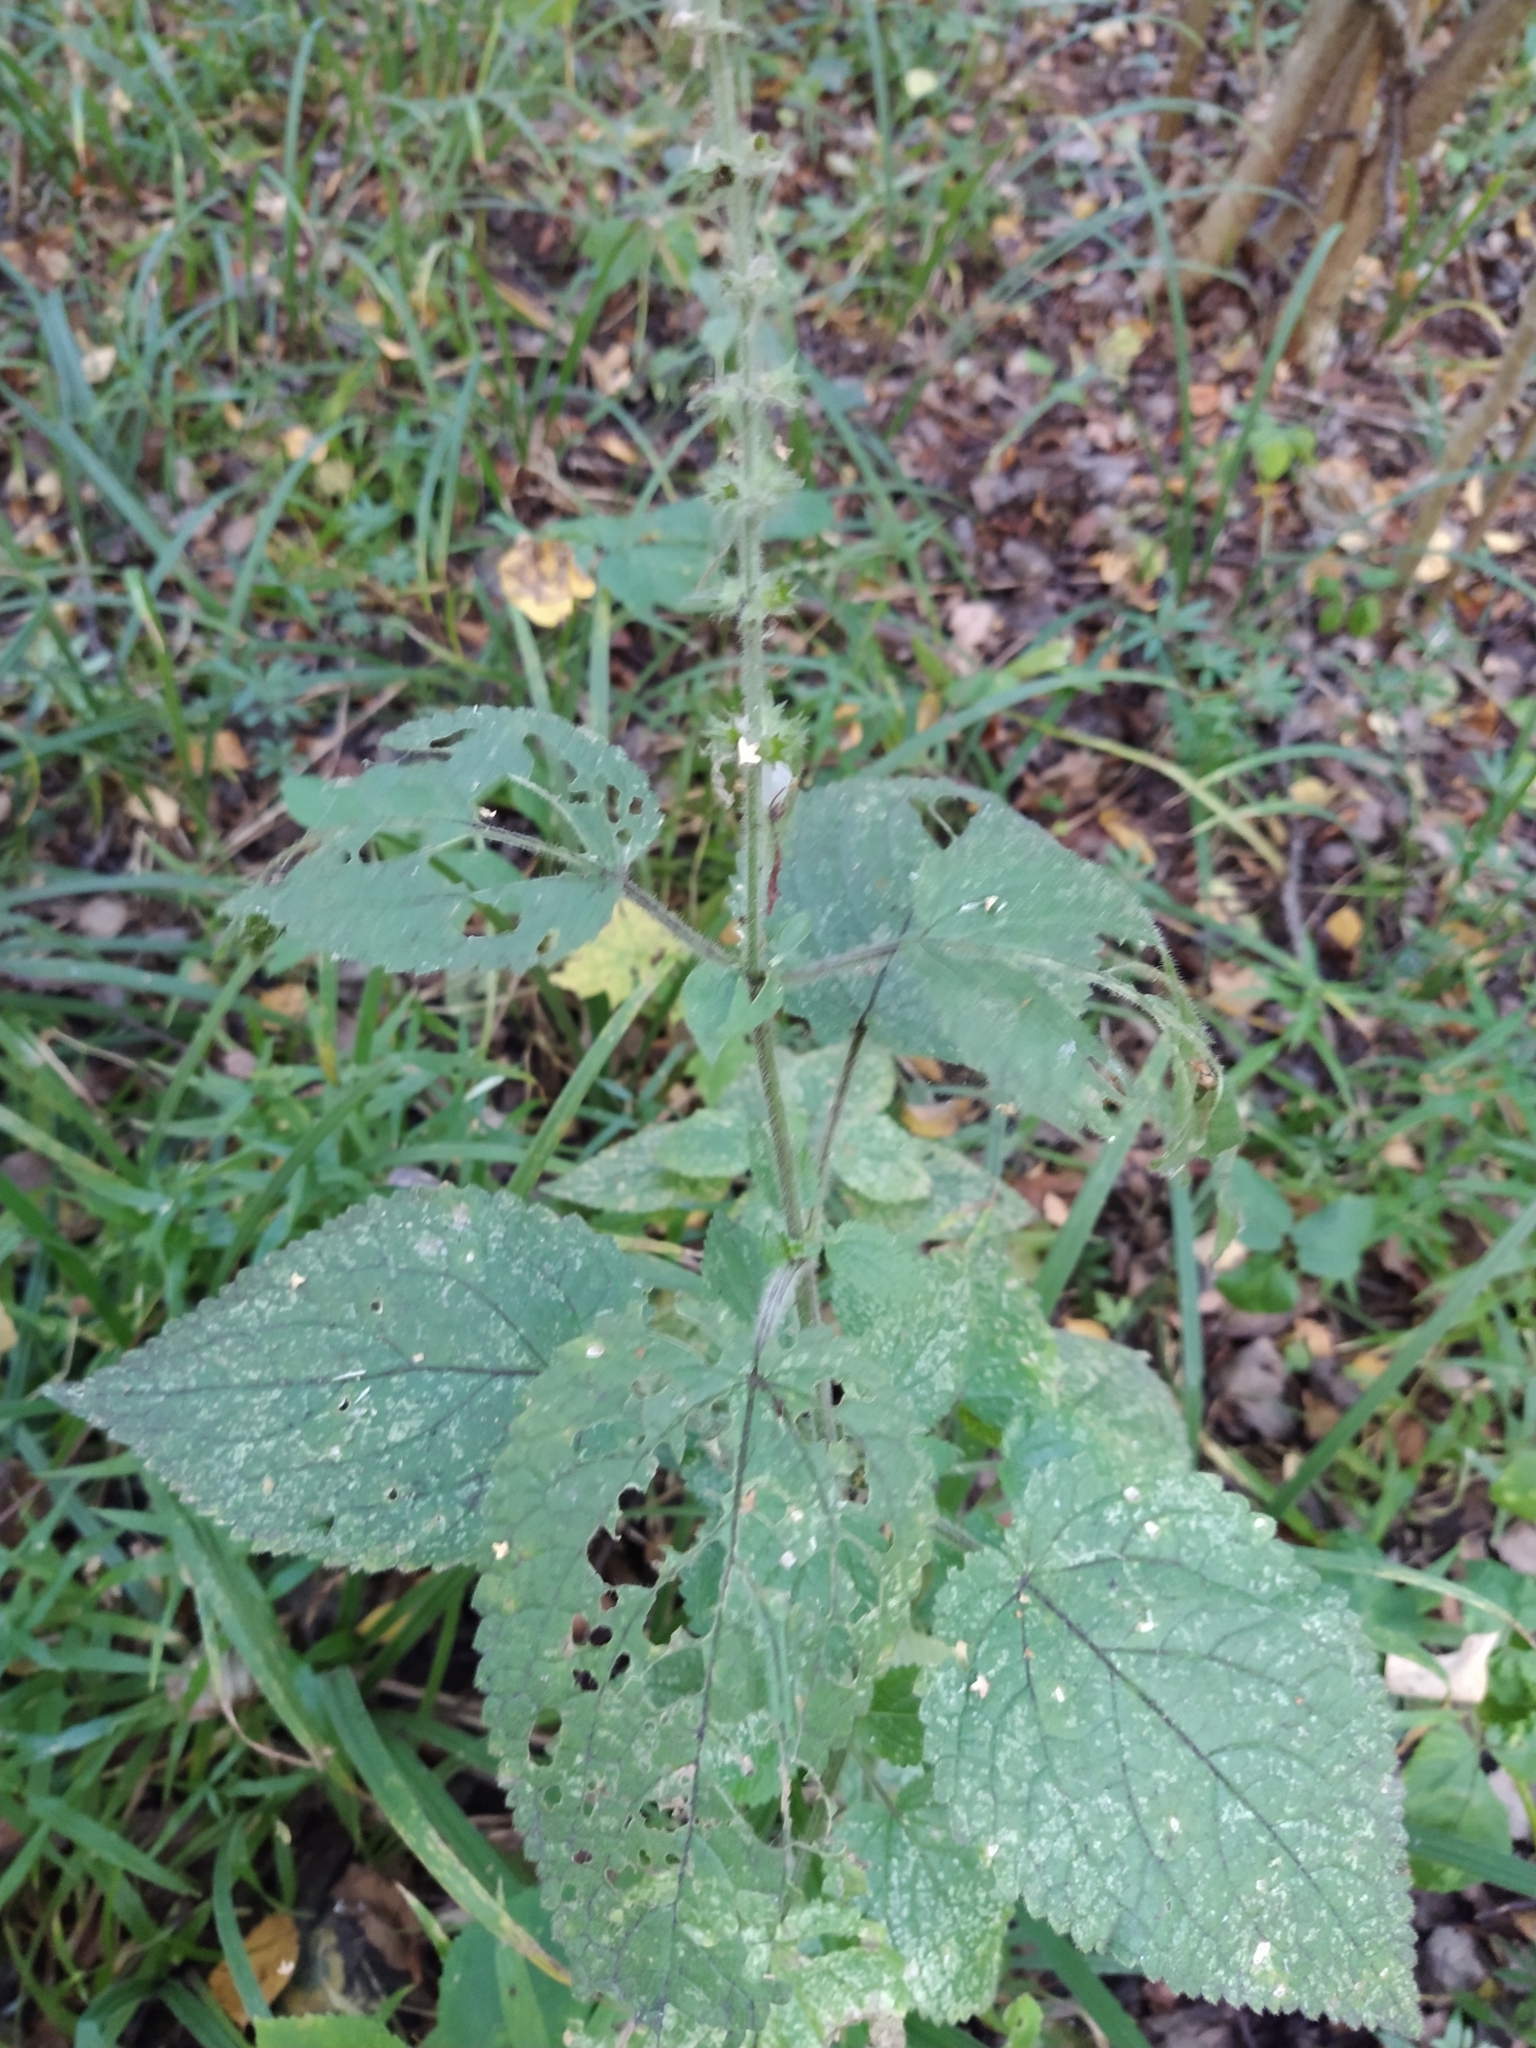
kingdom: Plantae
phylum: Tracheophyta
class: Magnoliopsida
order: Lamiales
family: Lamiaceae
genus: Stachys
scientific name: Stachys sylvatica
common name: Hedge woundwort
